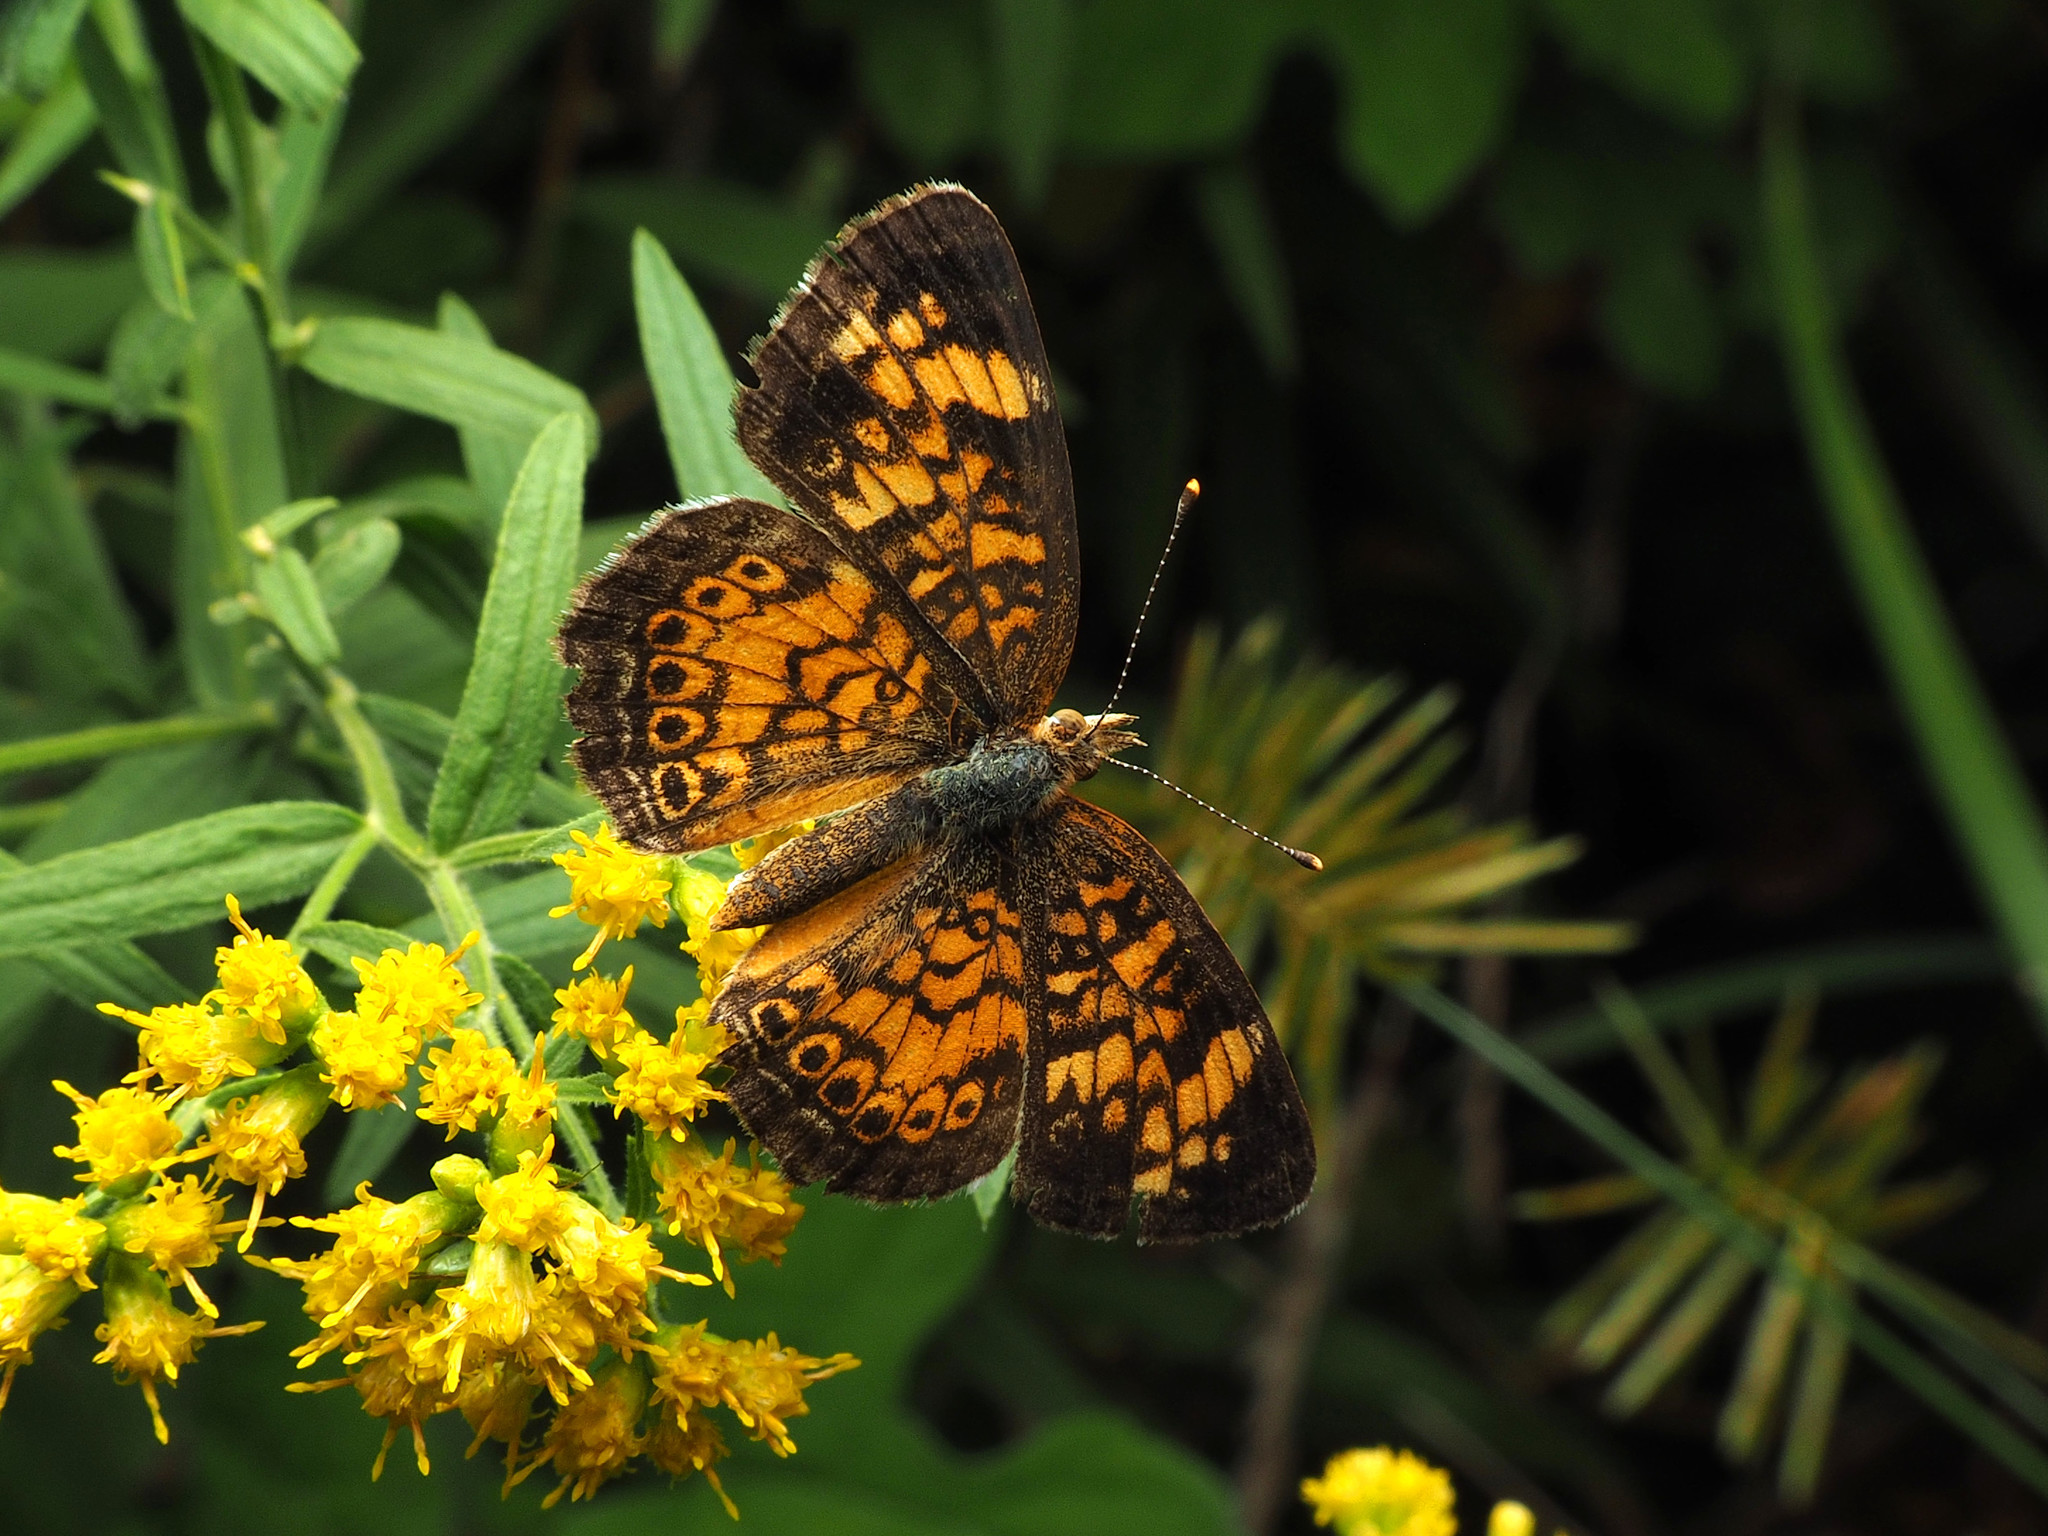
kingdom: Animalia
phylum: Arthropoda
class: Insecta
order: Lepidoptera
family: Nymphalidae
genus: Phyciodes
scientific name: Phyciodes tharos
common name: Pearl crescent
